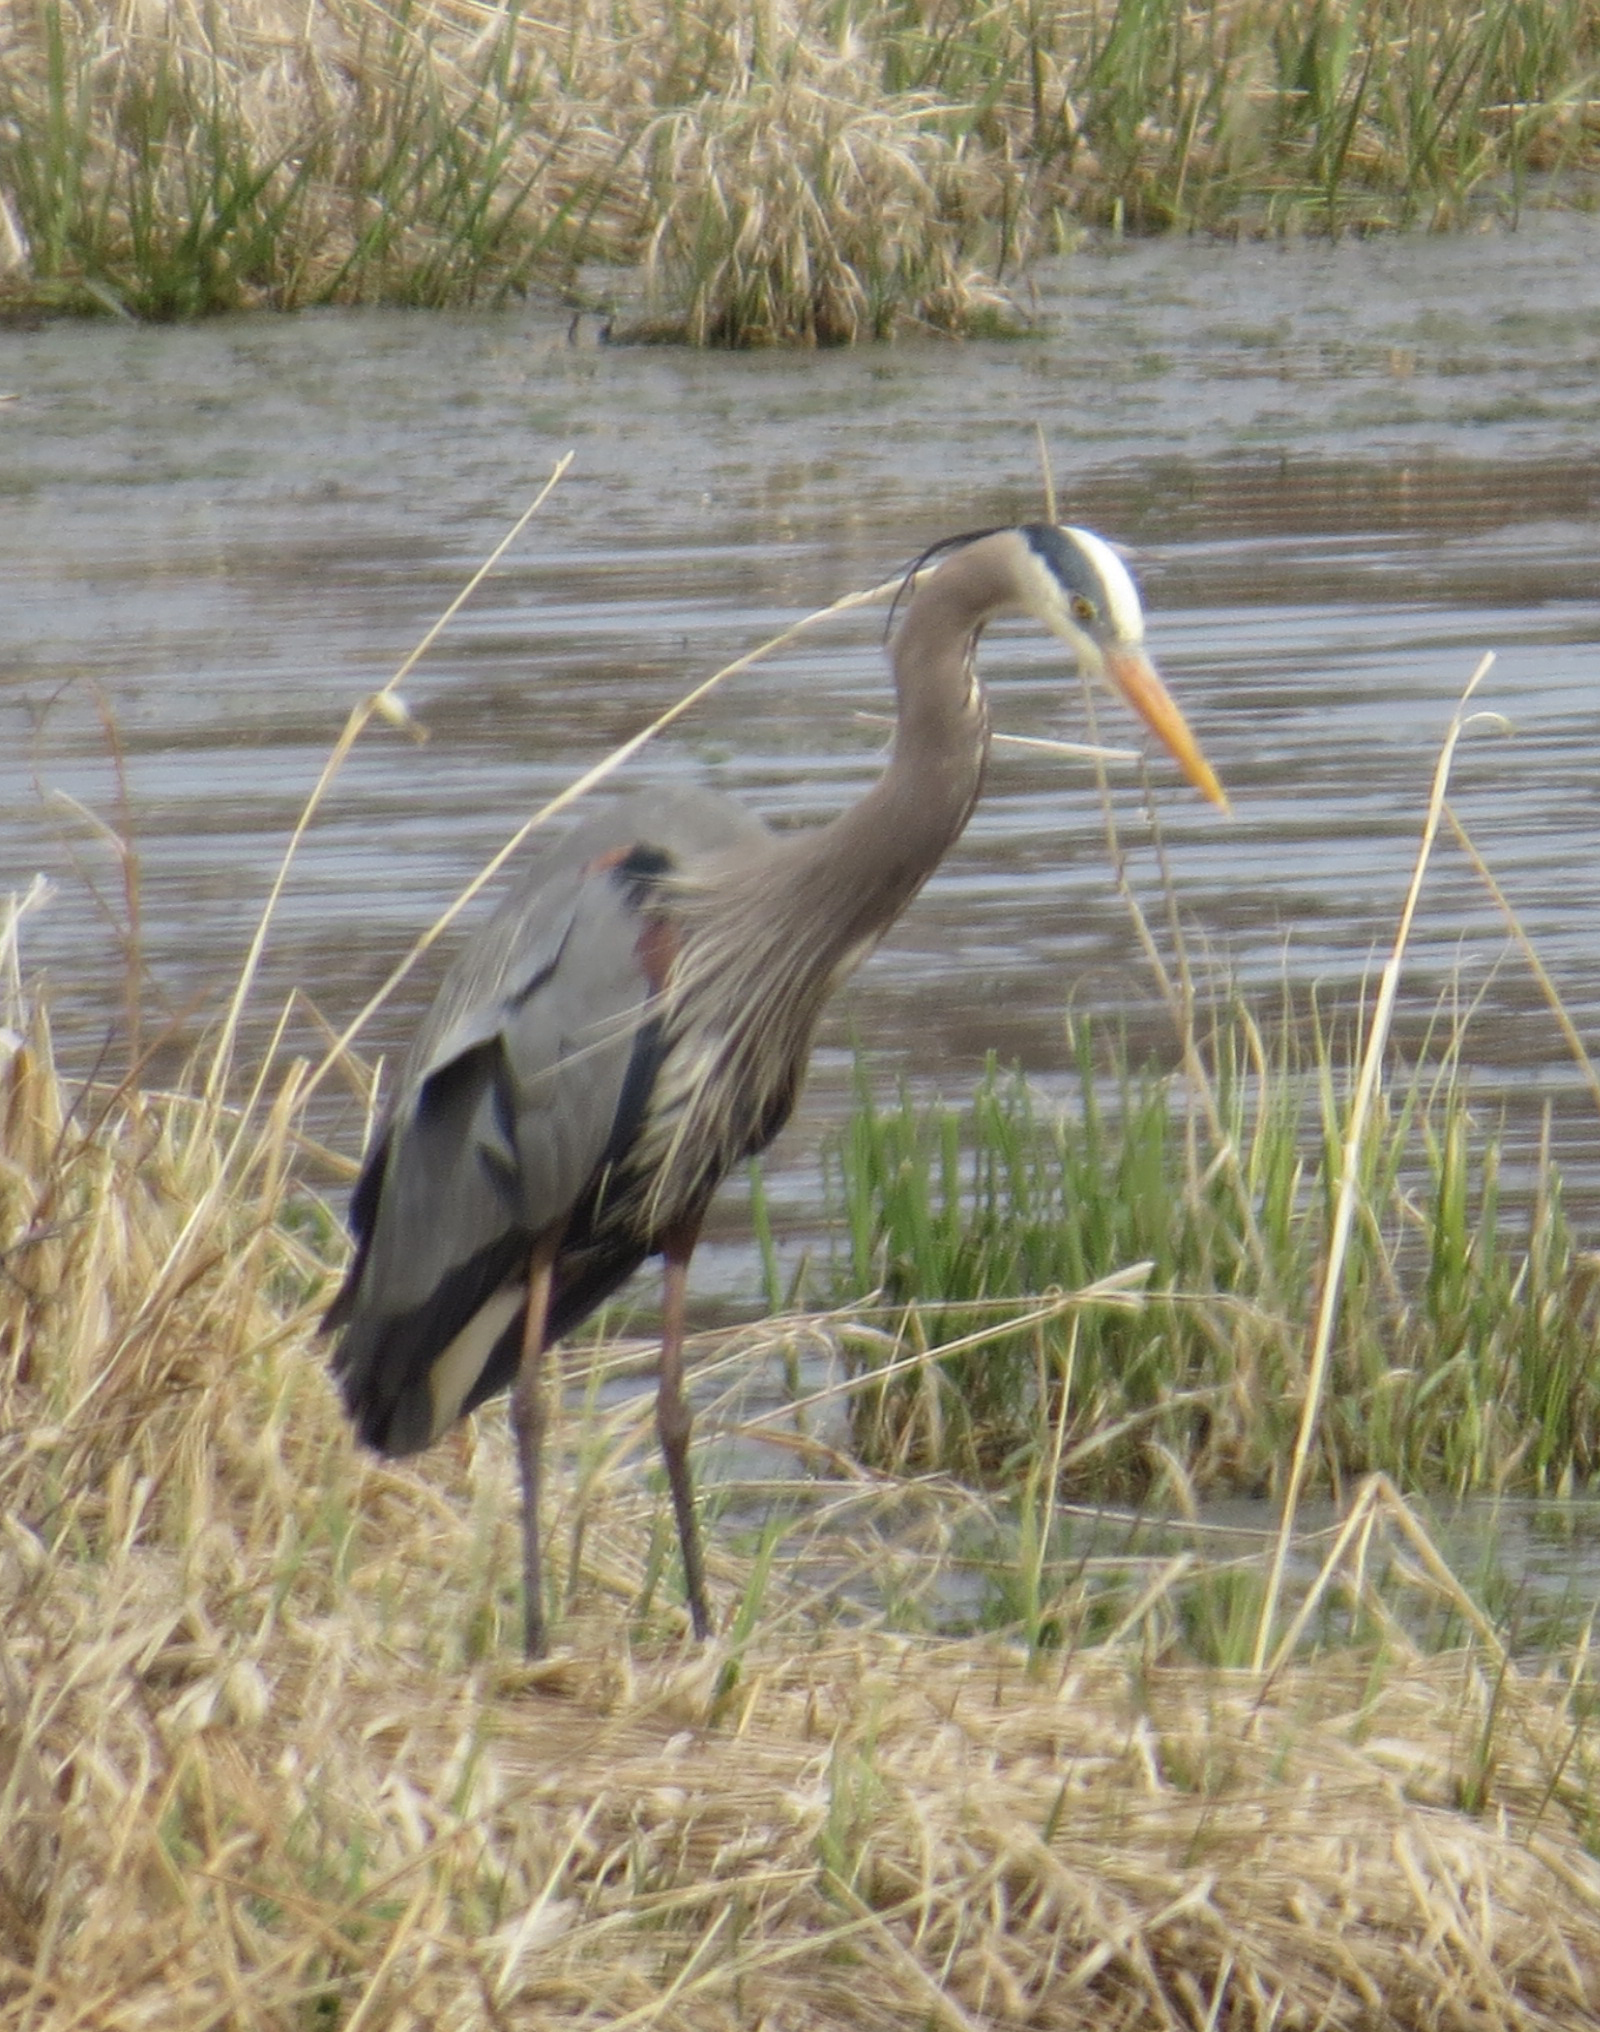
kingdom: Animalia
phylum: Chordata
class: Aves
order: Pelecaniformes
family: Ardeidae
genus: Ardea
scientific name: Ardea herodias
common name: Great blue heron
